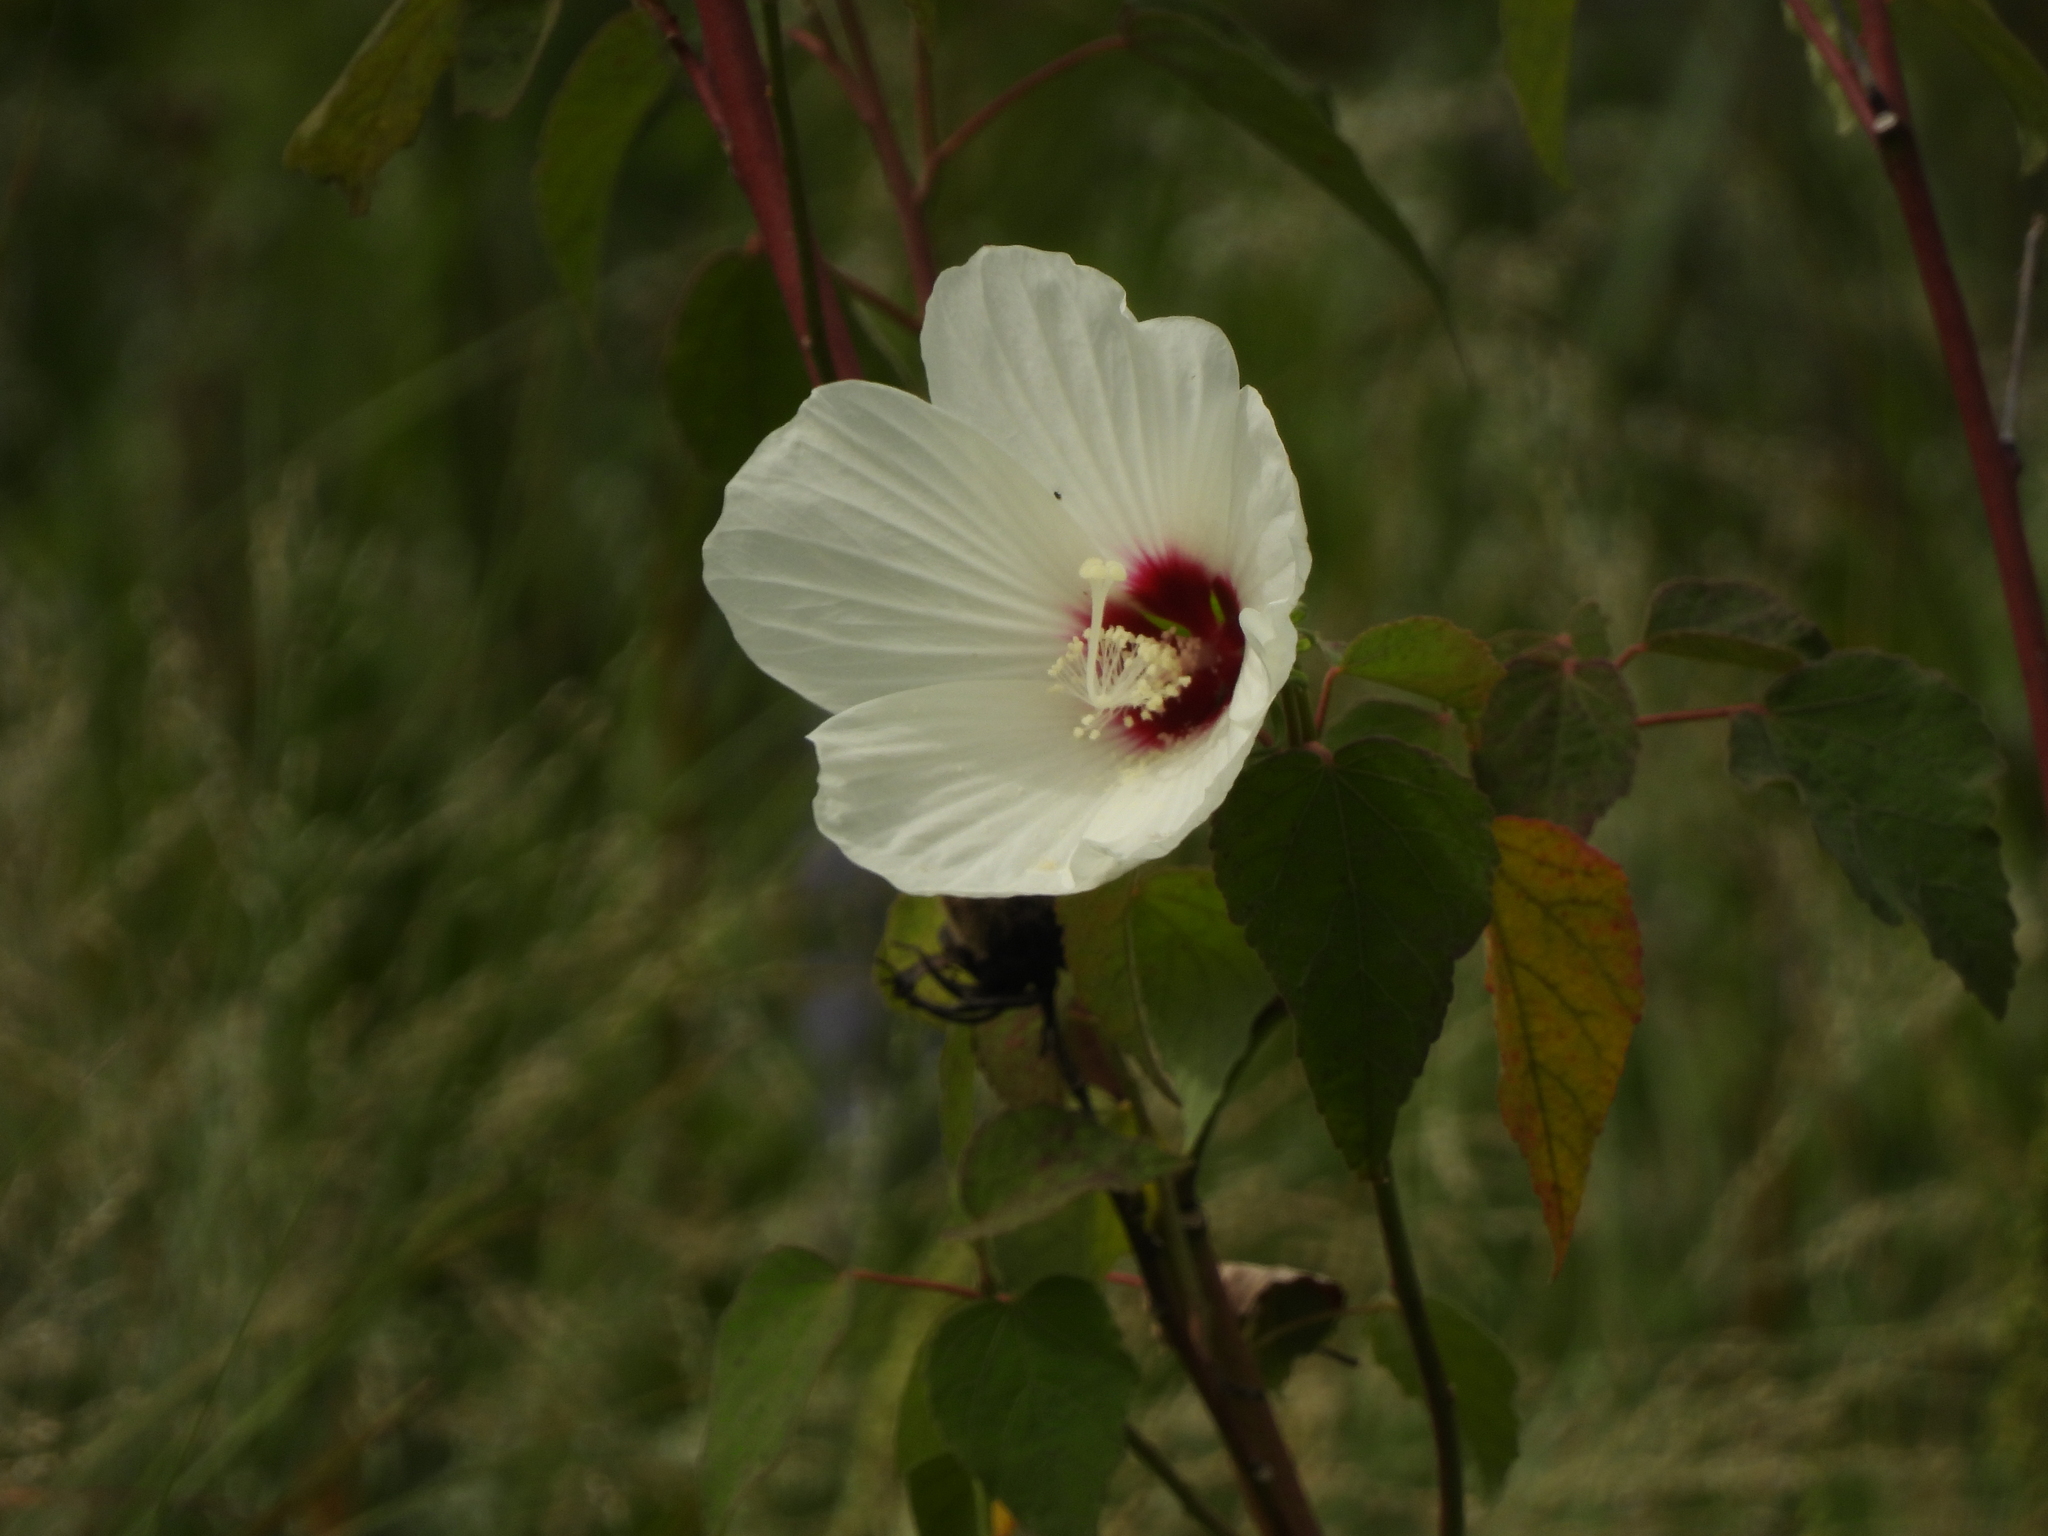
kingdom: Plantae
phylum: Tracheophyta
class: Magnoliopsida
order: Malvales
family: Malvaceae
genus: Hibiscus
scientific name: Hibiscus moscheutos
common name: Common rose-mallow
